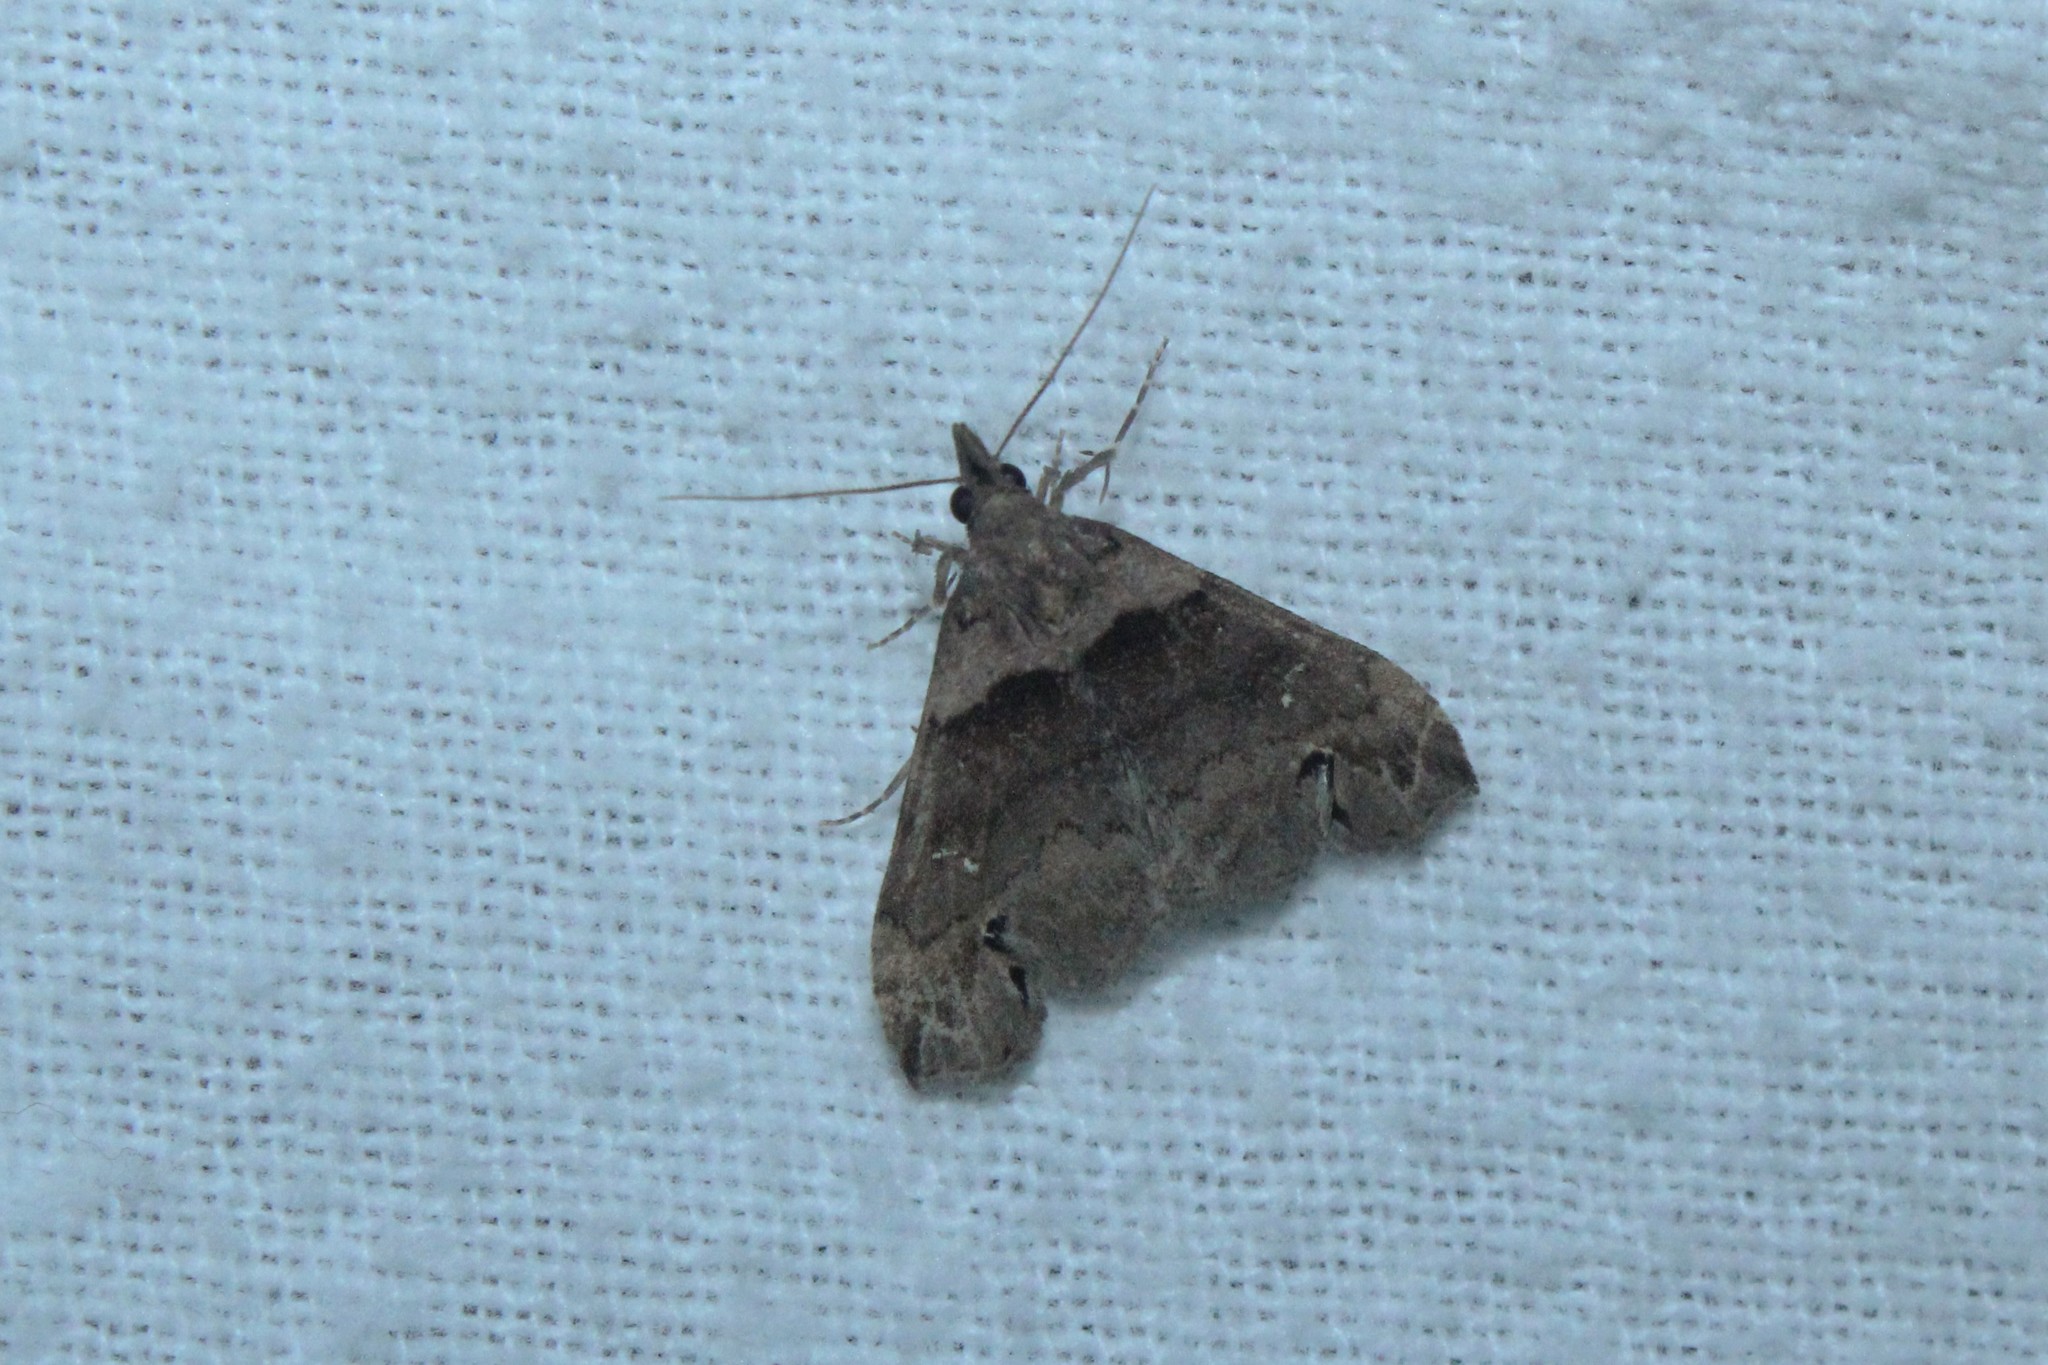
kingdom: Animalia
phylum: Arthropoda
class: Insecta
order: Lepidoptera
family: Erebidae
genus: Lascoria
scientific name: Lascoria ambigualis
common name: Ambiguous moth
